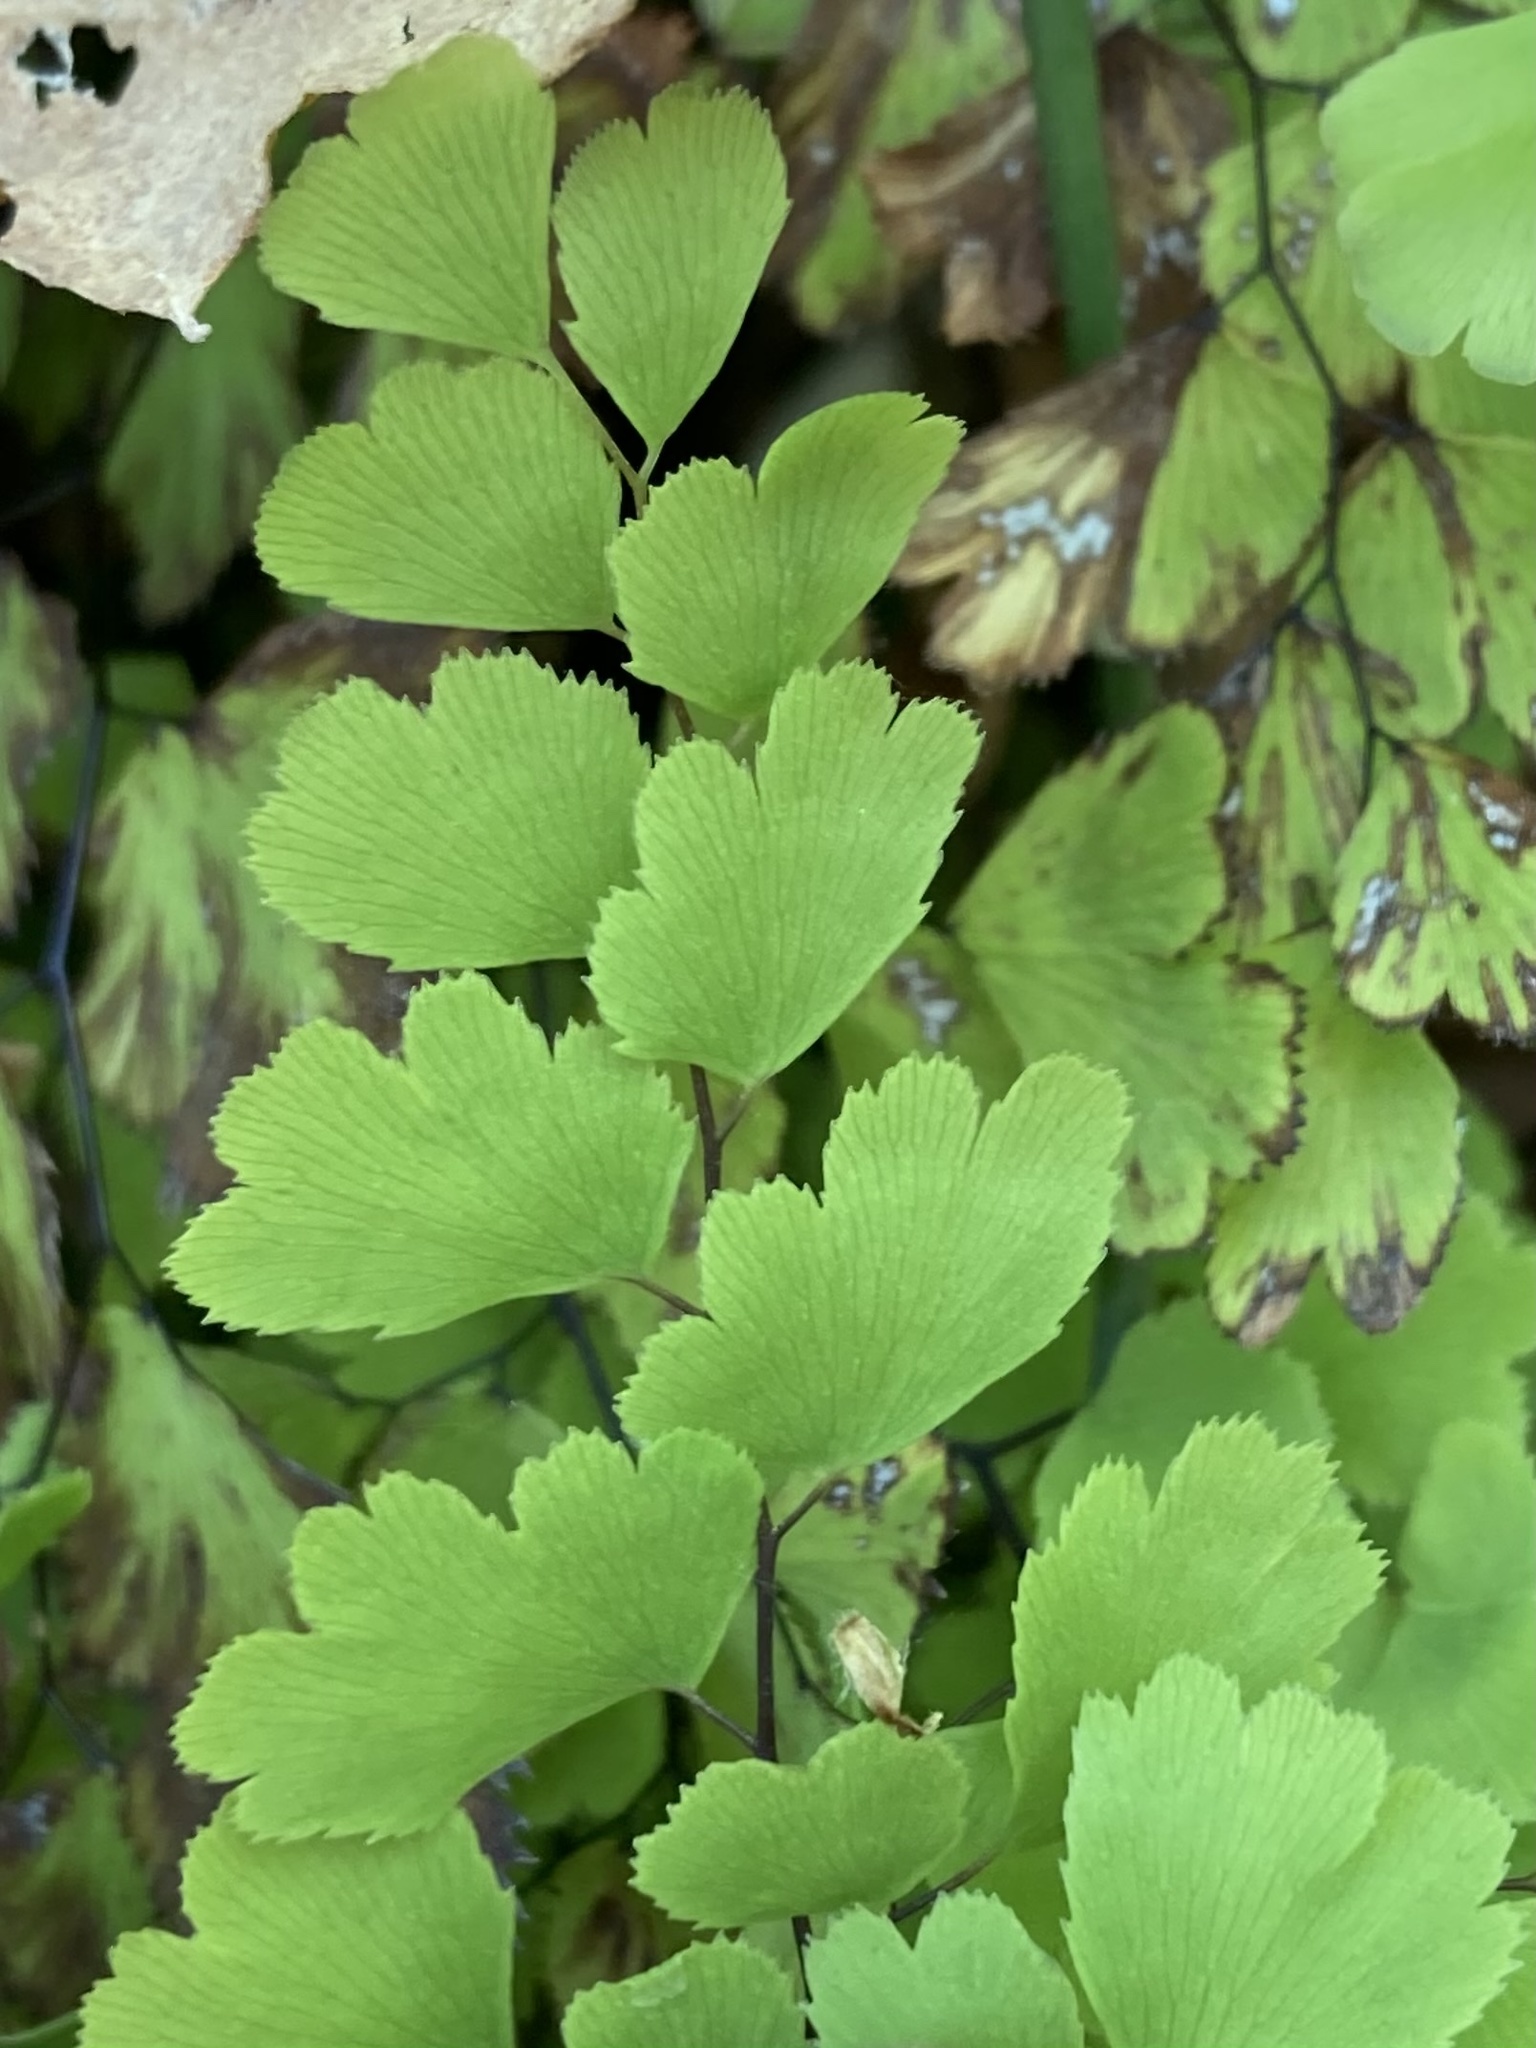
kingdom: Plantae
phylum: Tracheophyta
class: Polypodiopsida
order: Polypodiales
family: Pteridaceae
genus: Adiantum
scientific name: Adiantum capillus-veneris
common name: Maidenhair fern
